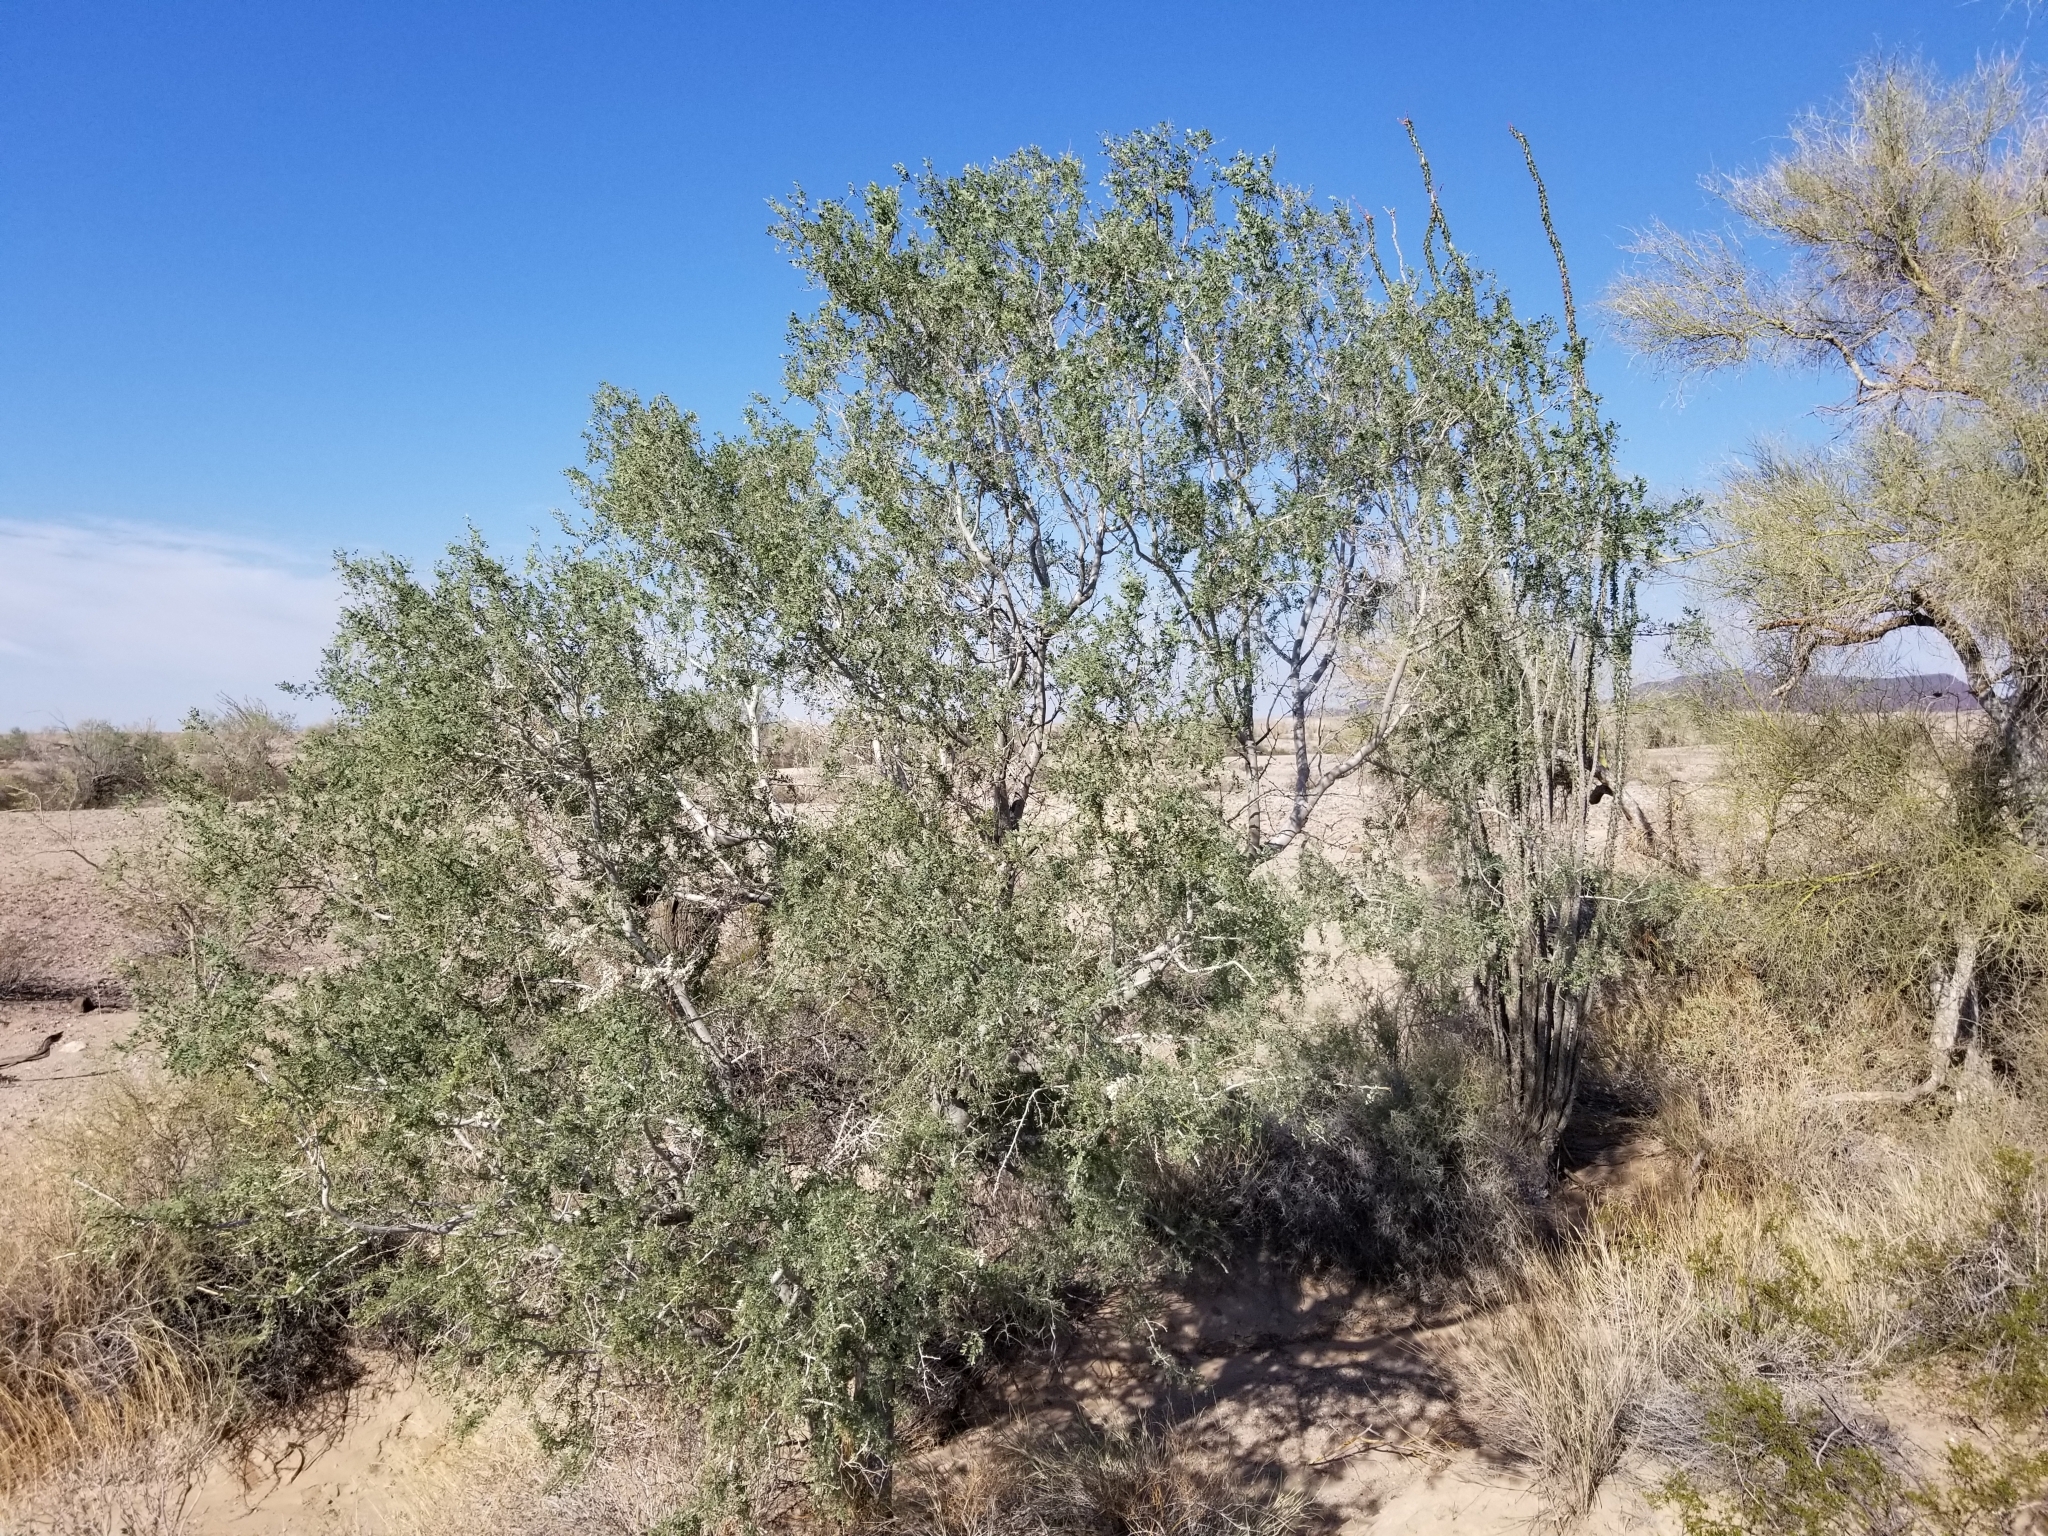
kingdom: Plantae
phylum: Tracheophyta
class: Magnoliopsida
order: Fabales
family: Fabaceae
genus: Olneya
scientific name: Olneya tesota
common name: Desert ironwood
